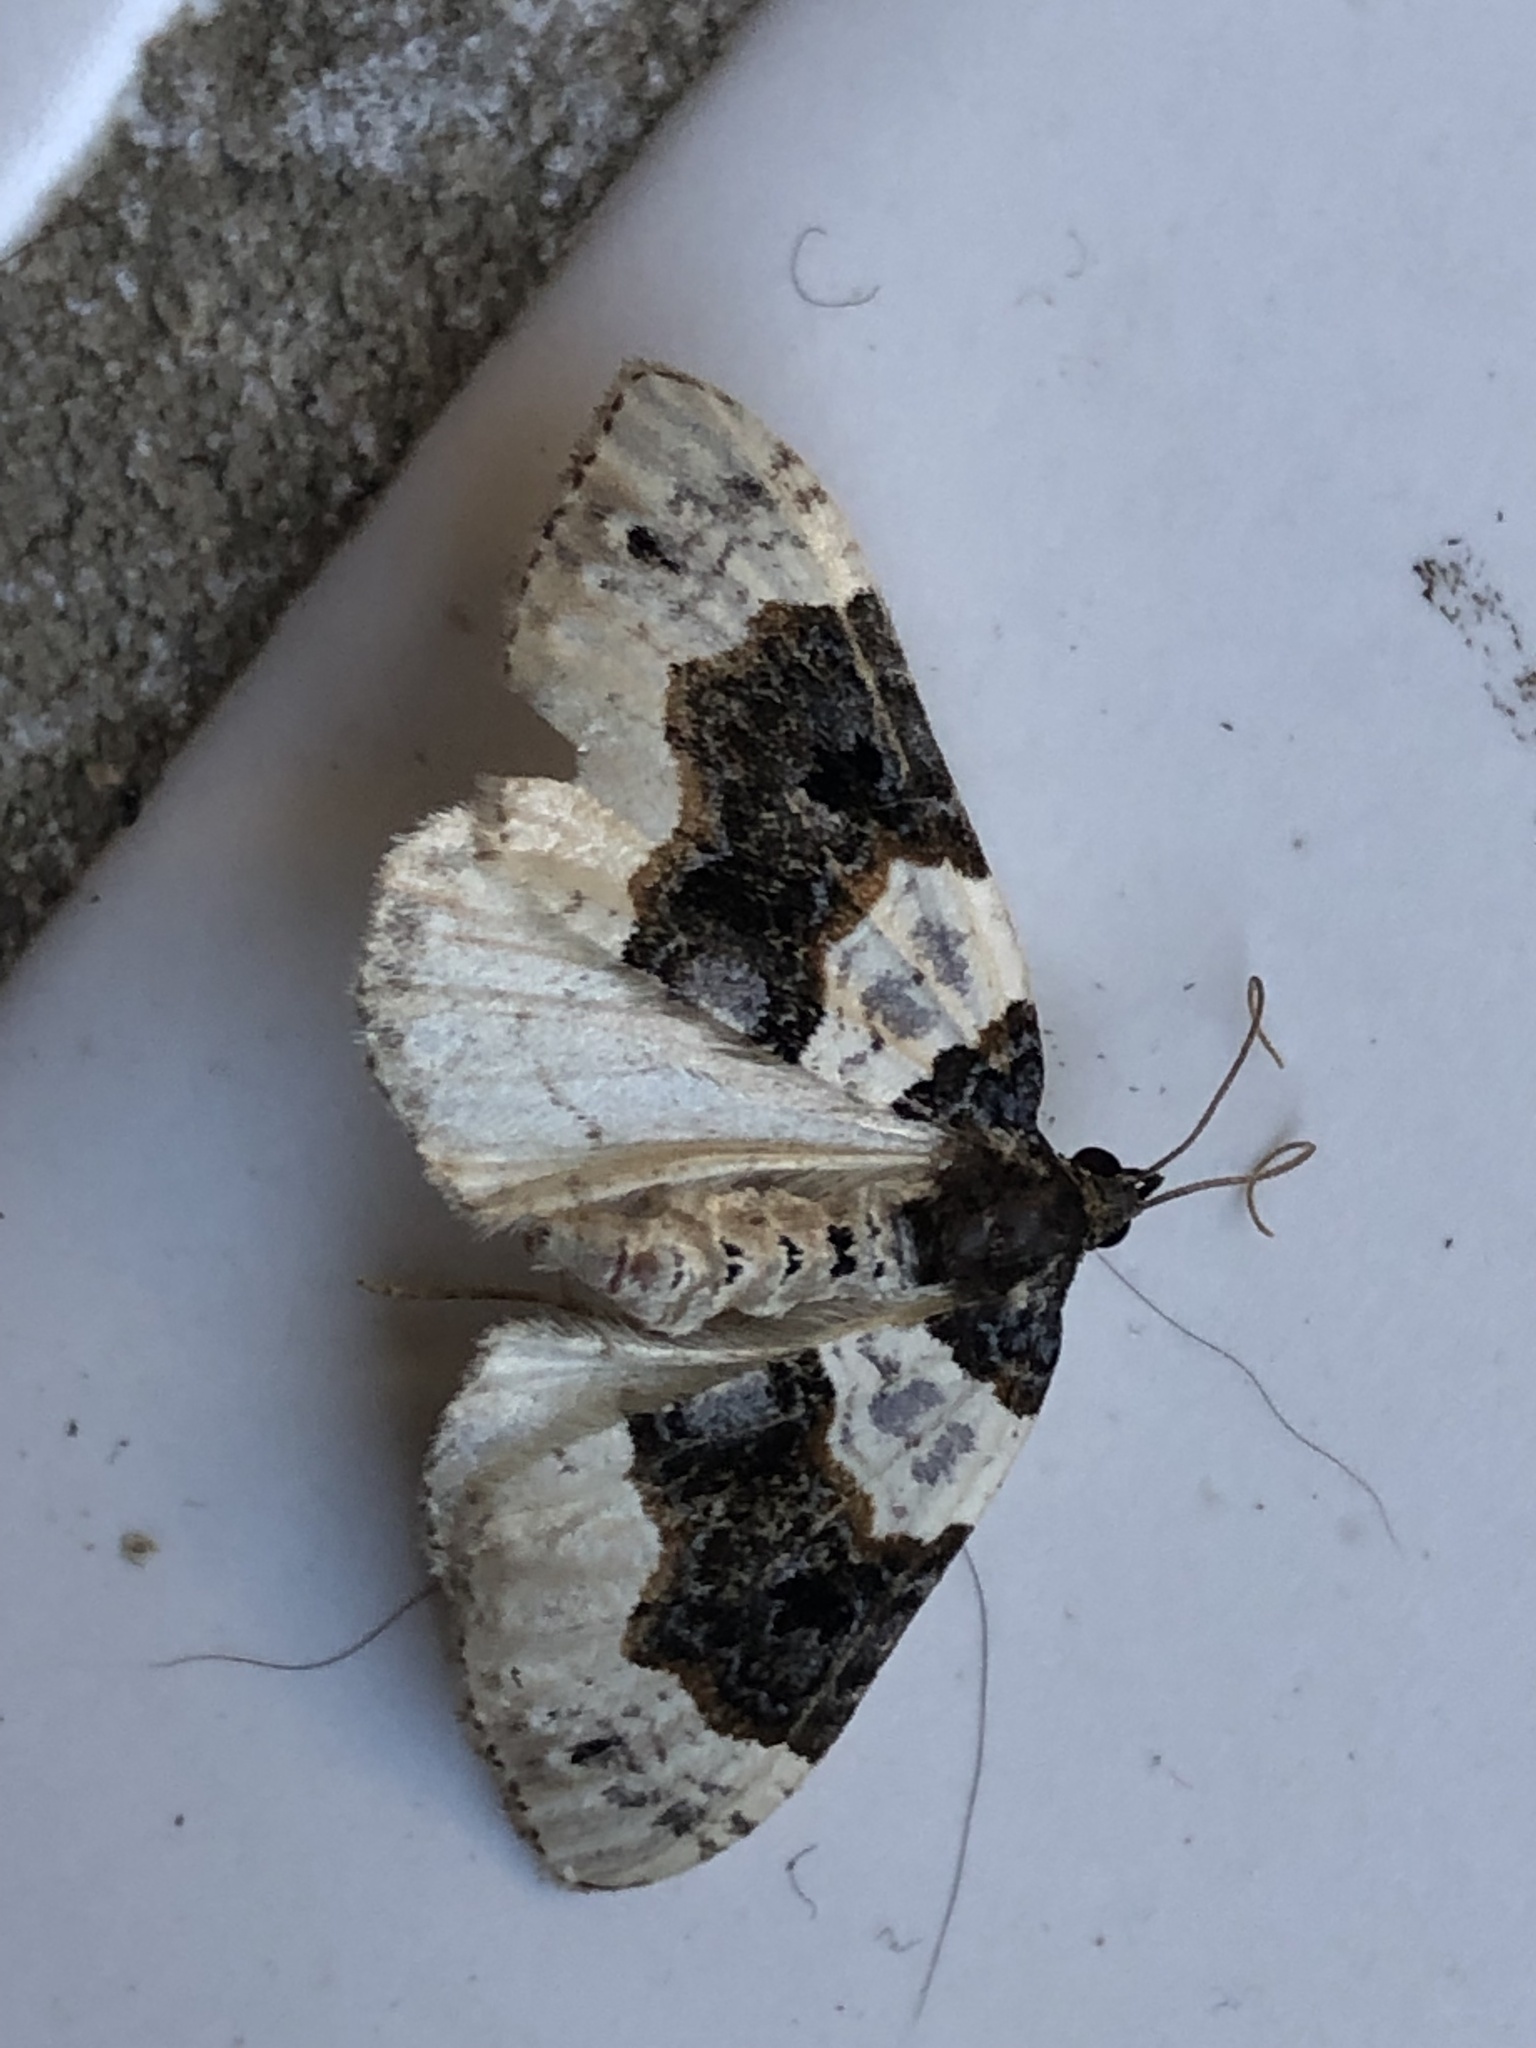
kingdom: Animalia
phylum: Arthropoda
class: Insecta
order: Lepidoptera
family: Geometridae
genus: Cosmorhoe
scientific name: Cosmorhoe ocellata
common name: Purple bar
